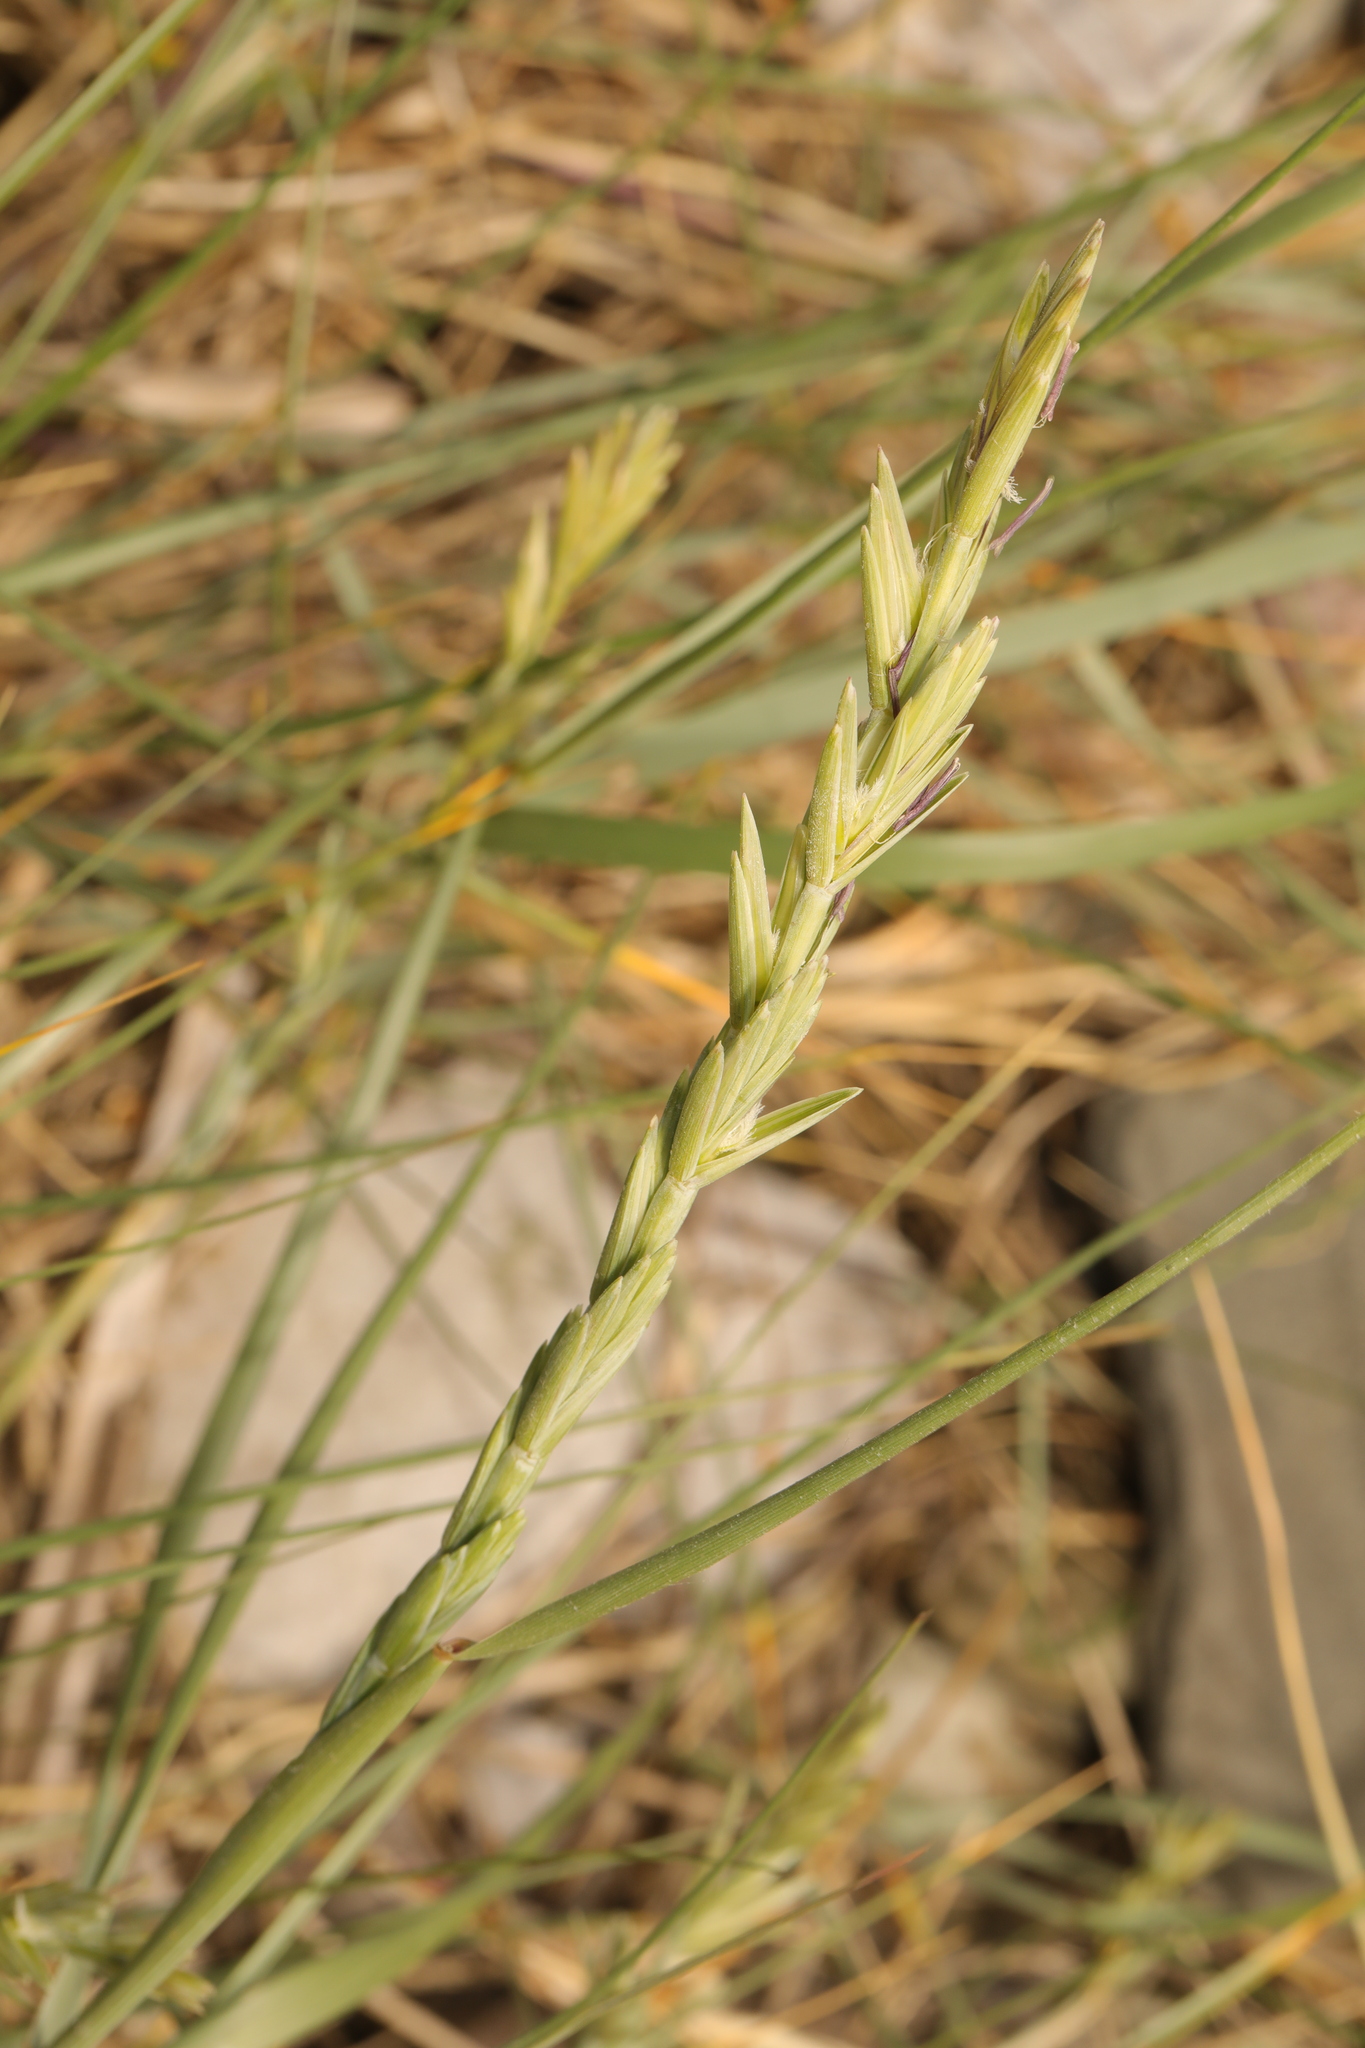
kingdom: Plantae
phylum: Tracheophyta
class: Liliopsida
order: Poales
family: Poaceae
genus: Thinopyrum
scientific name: Thinopyrum junceum
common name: Russian wheatgrass
